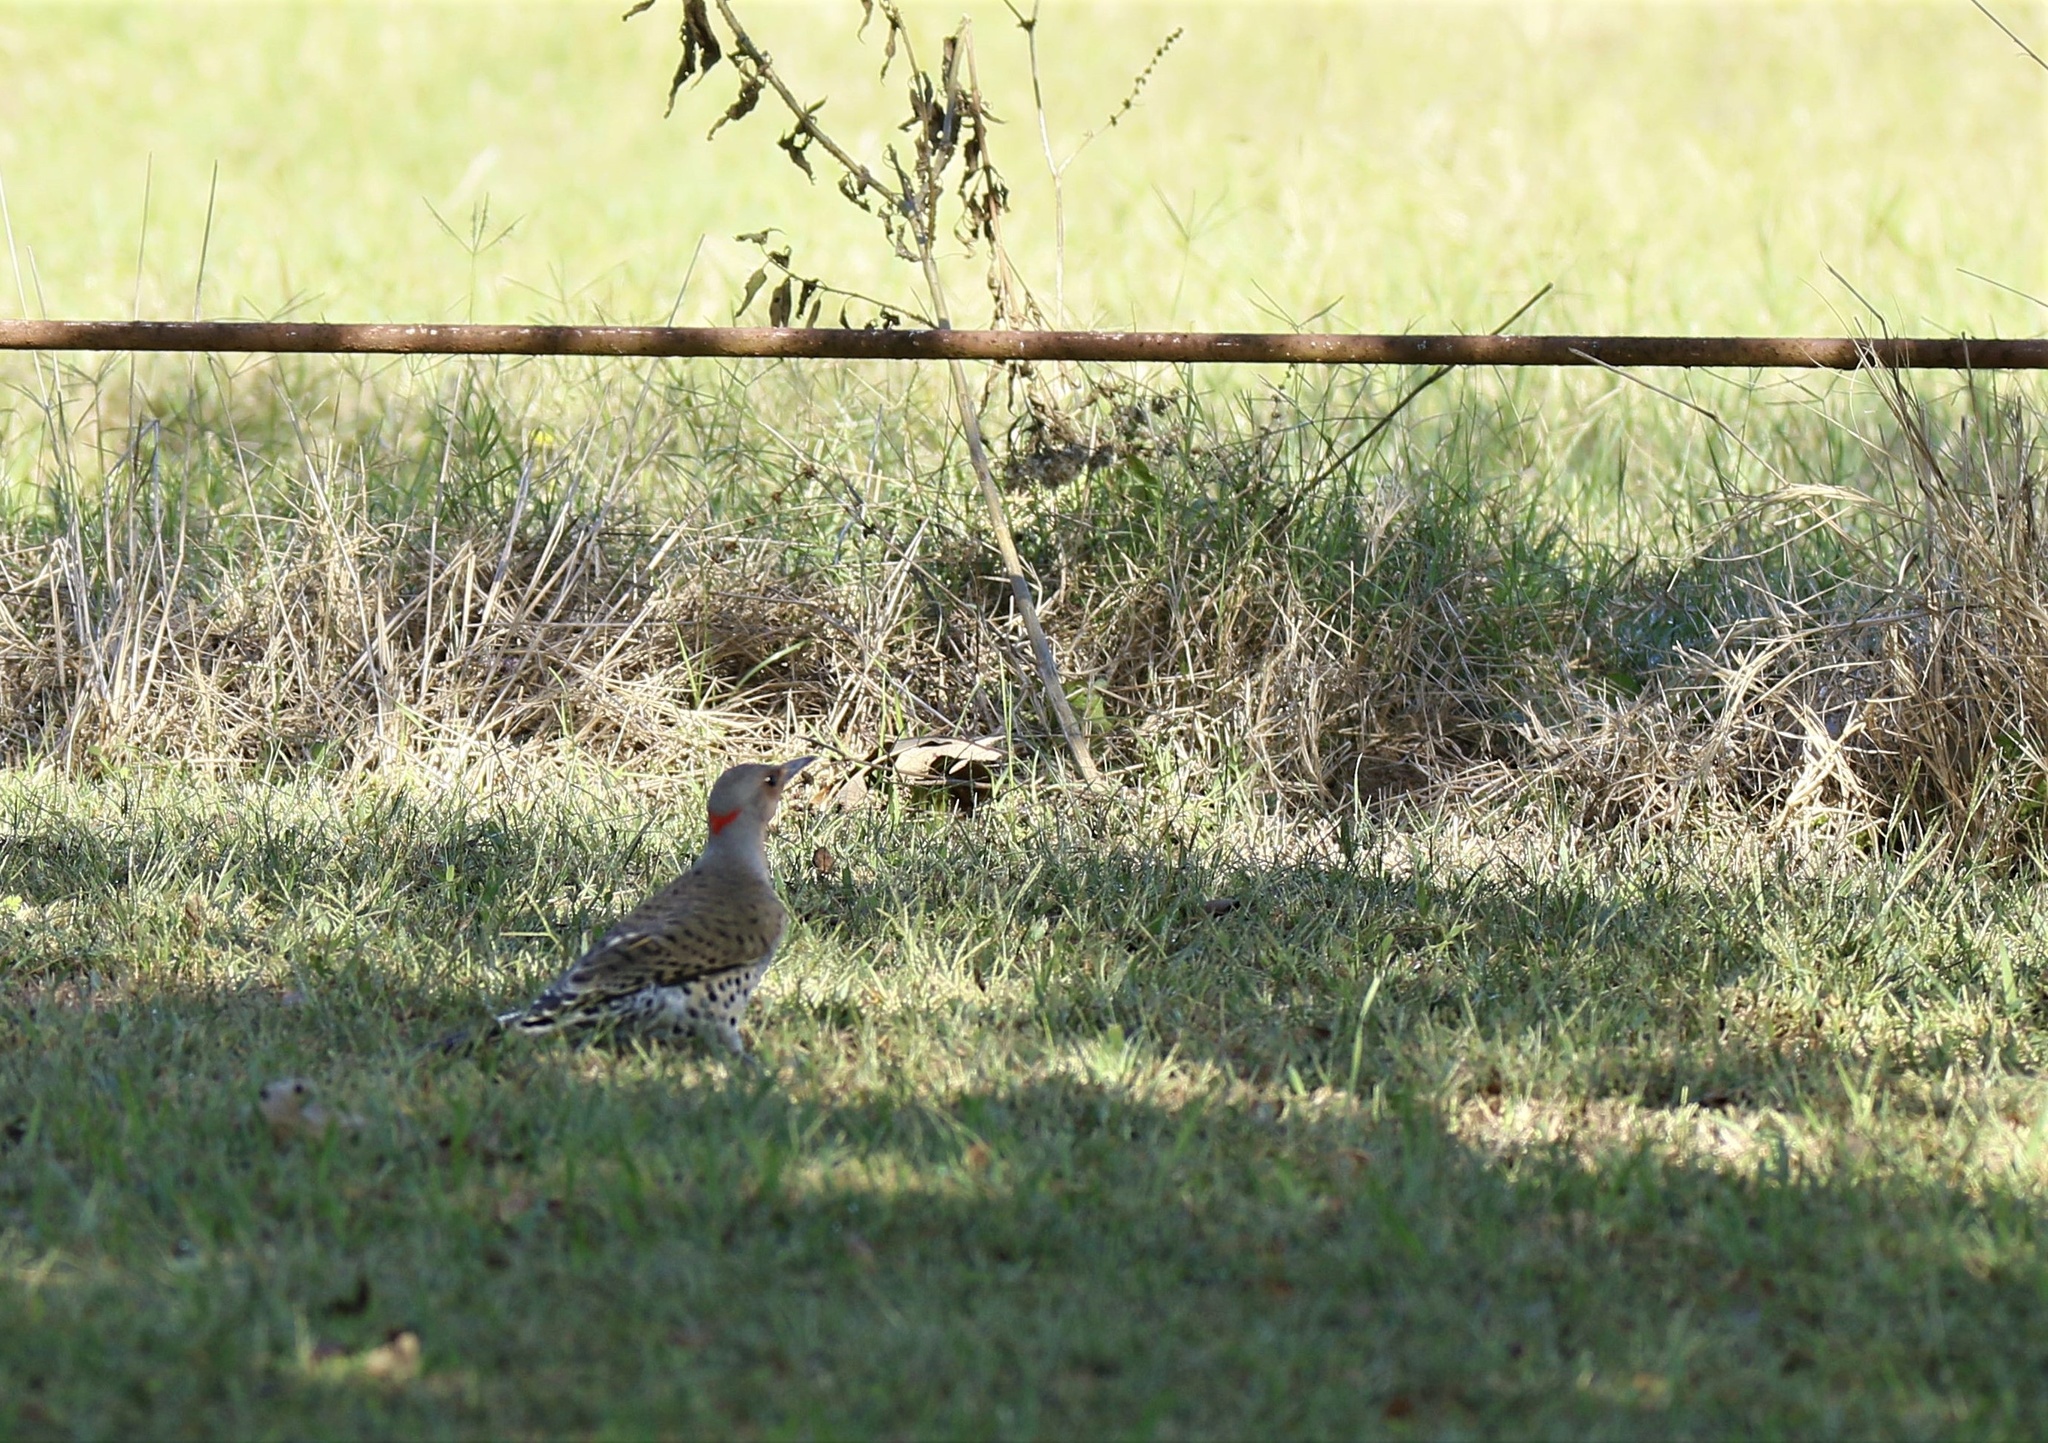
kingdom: Animalia
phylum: Chordata
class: Aves
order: Piciformes
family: Picidae
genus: Colaptes
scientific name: Colaptes auratus
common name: Northern flicker
